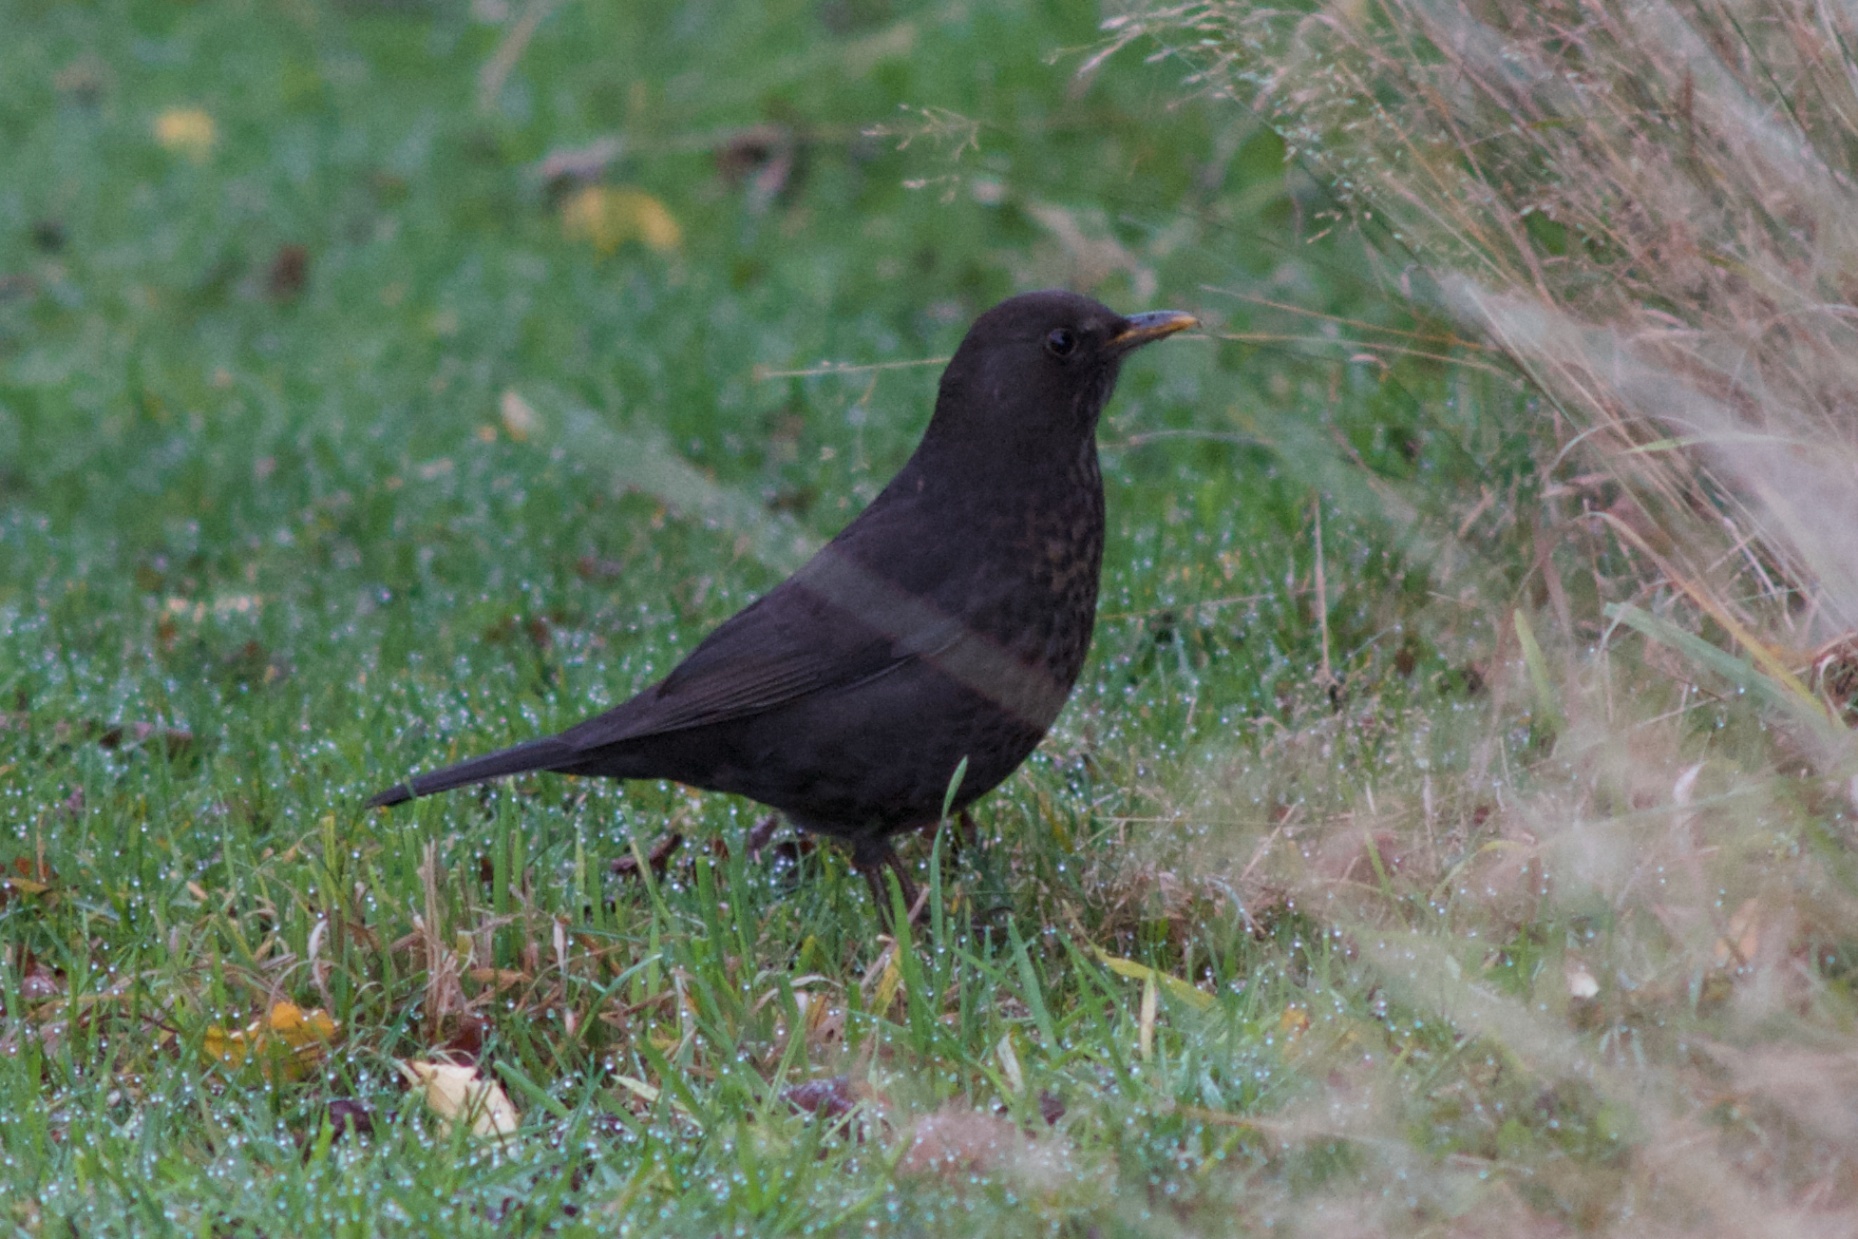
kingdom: Animalia
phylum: Chordata
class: Aves
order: Passeriformes
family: Turdidae
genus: Turdus
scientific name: Turdus merula
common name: Common blackbird
